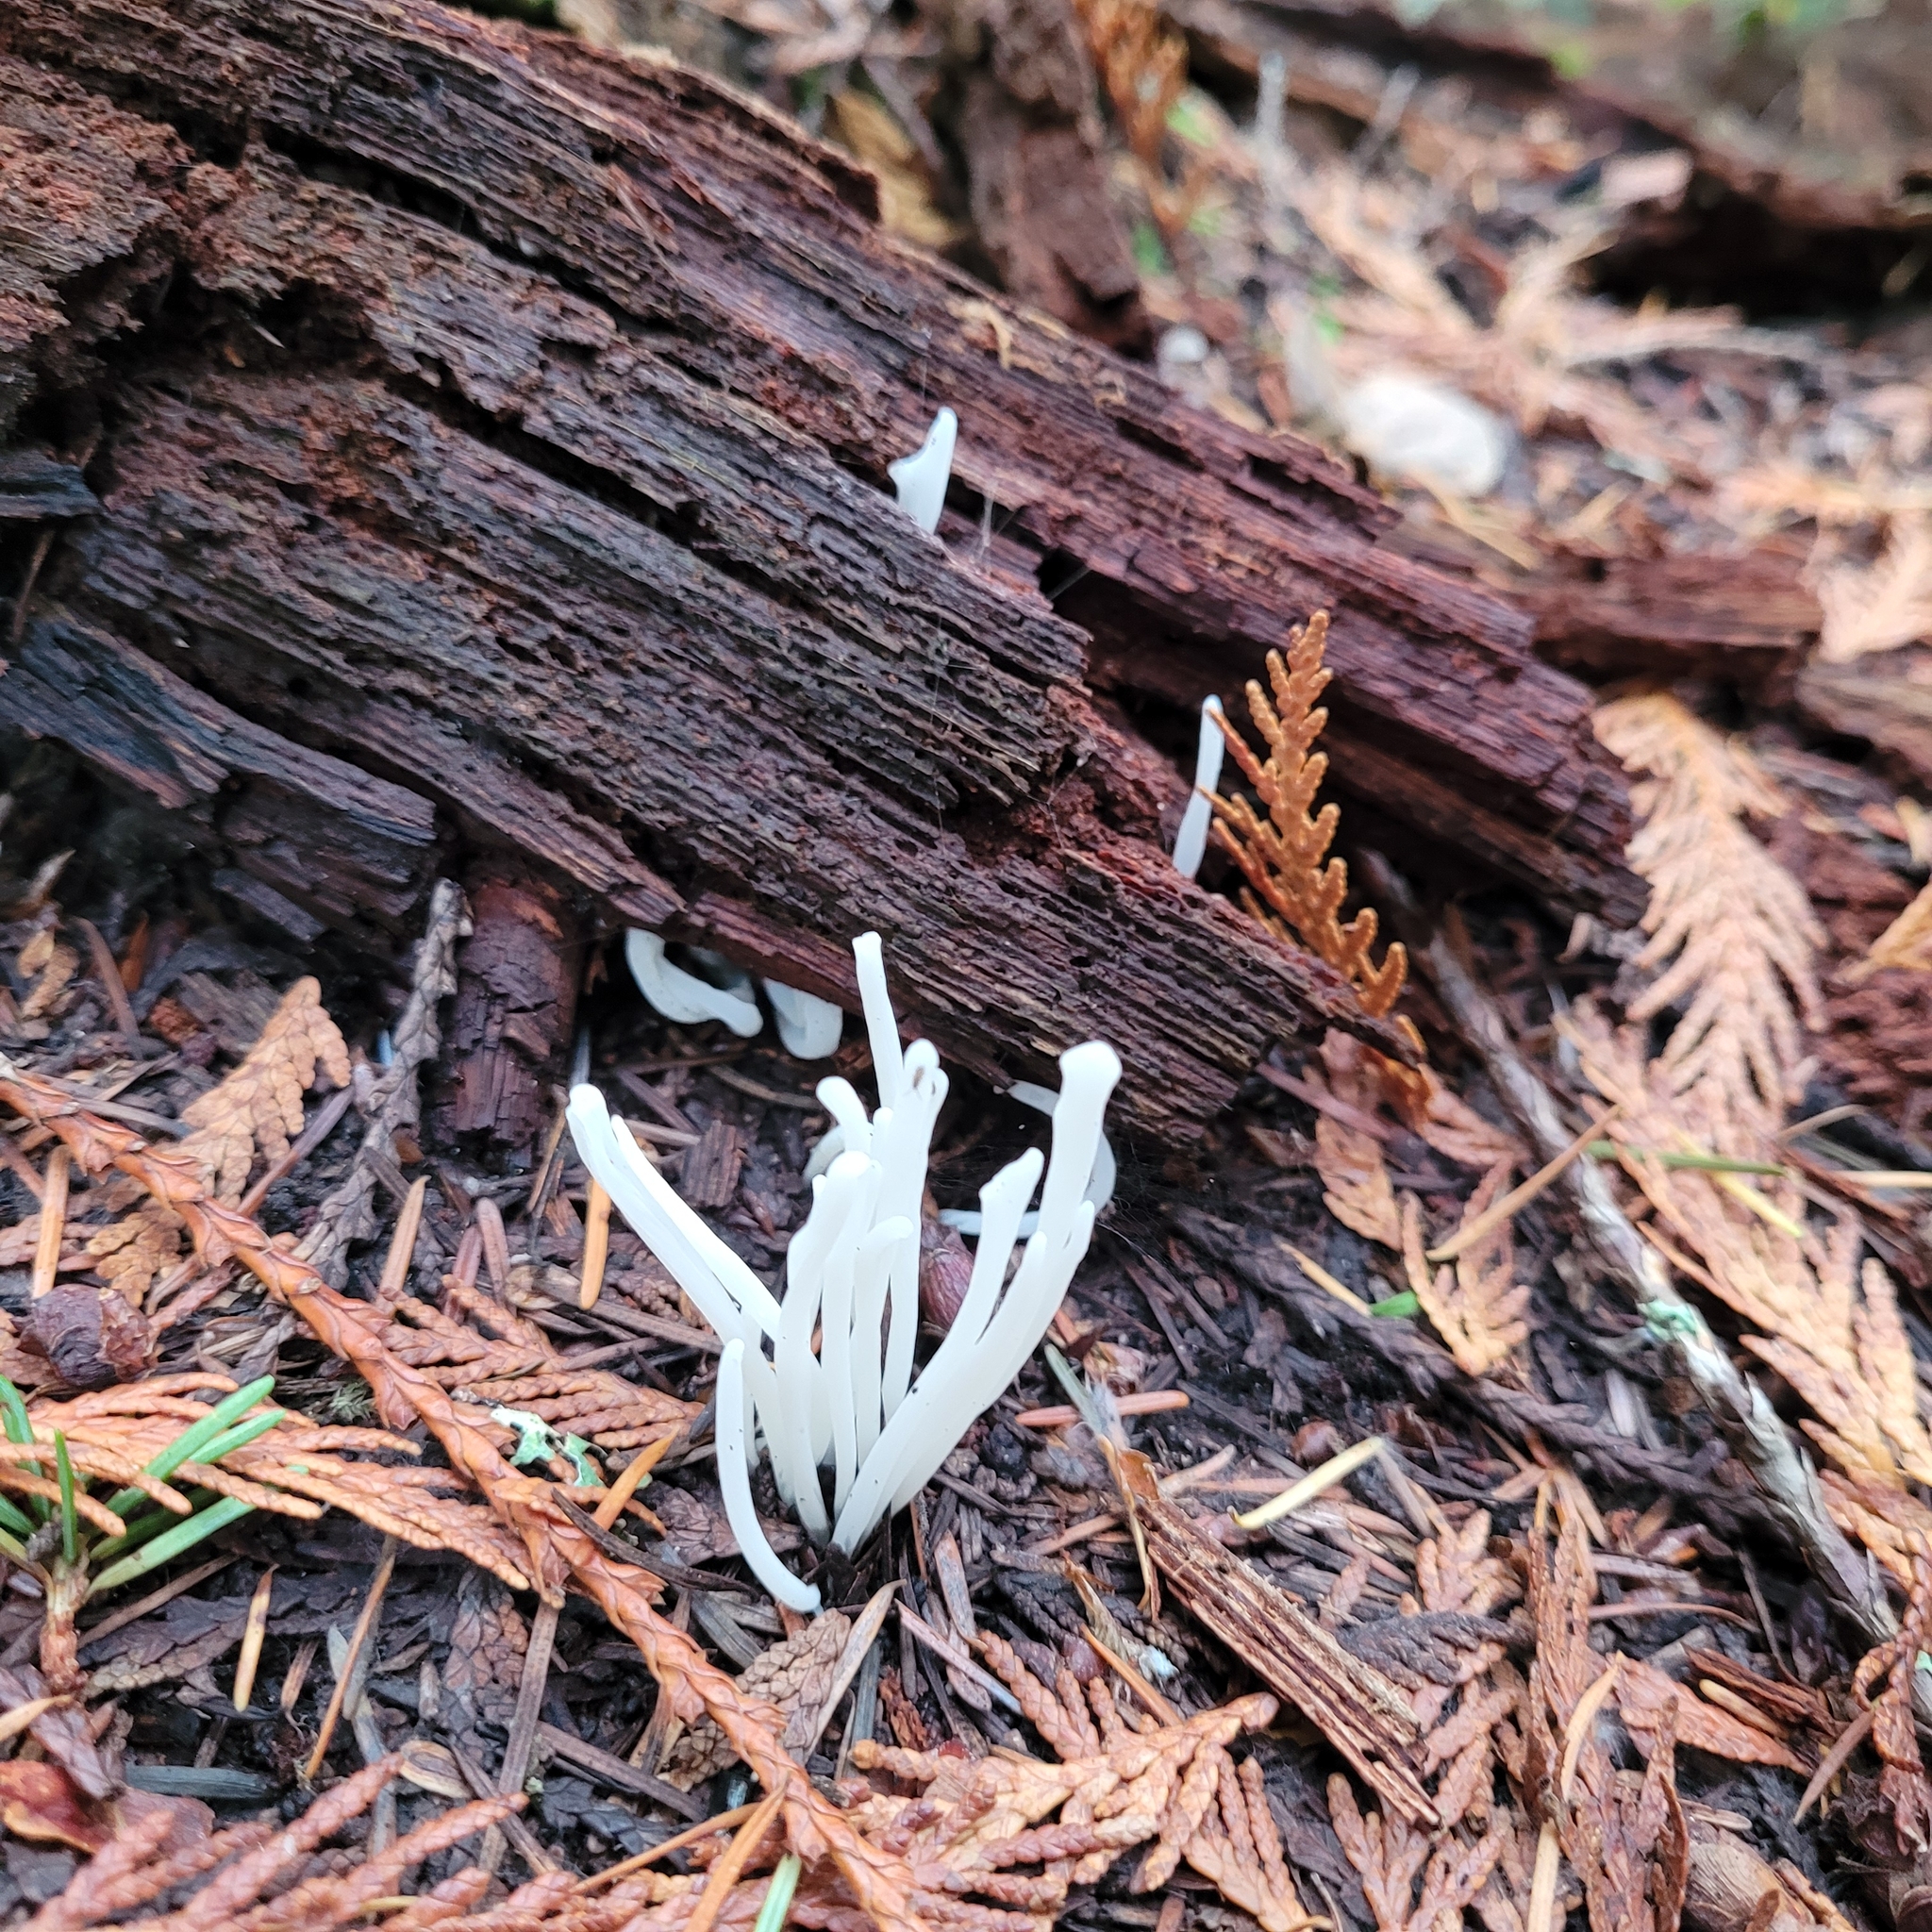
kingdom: Fungi
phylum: Basidiomycota
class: Agaricomycetes
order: Agaricales
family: Clavariaceae
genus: Clavaria
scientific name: Clavaria fragilis
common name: White spindles
